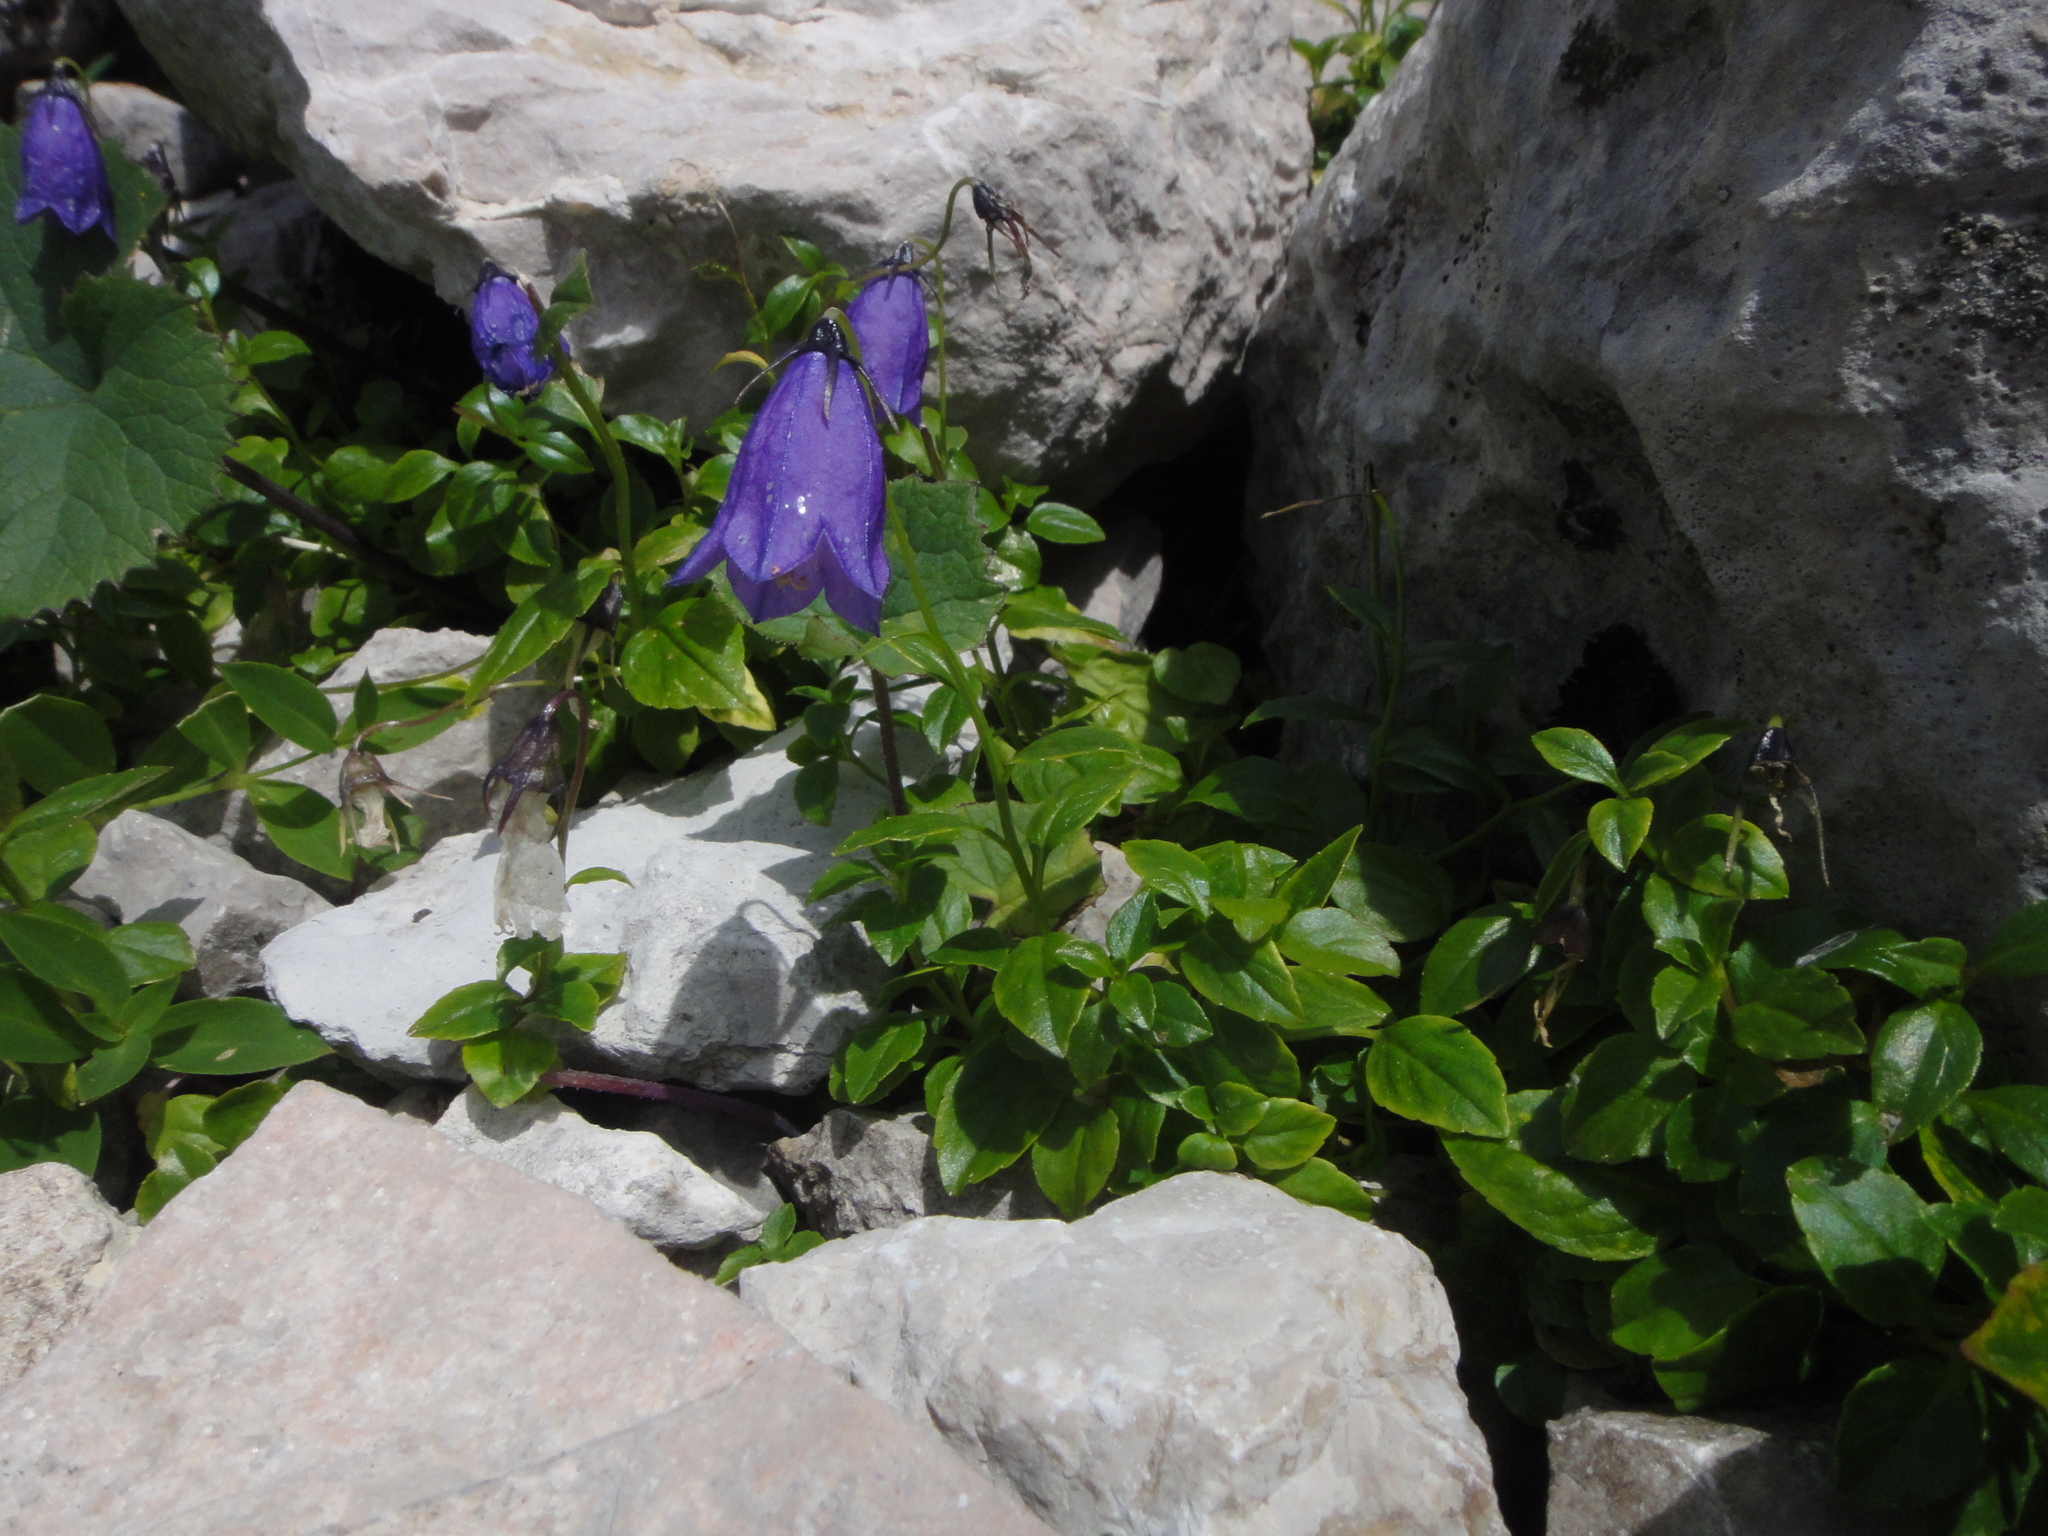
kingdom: Plantae
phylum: Tracheophyta
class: Magnoliopsida
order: Asterales
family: Campanulaceae
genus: Campanula
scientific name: Campanula pulla
